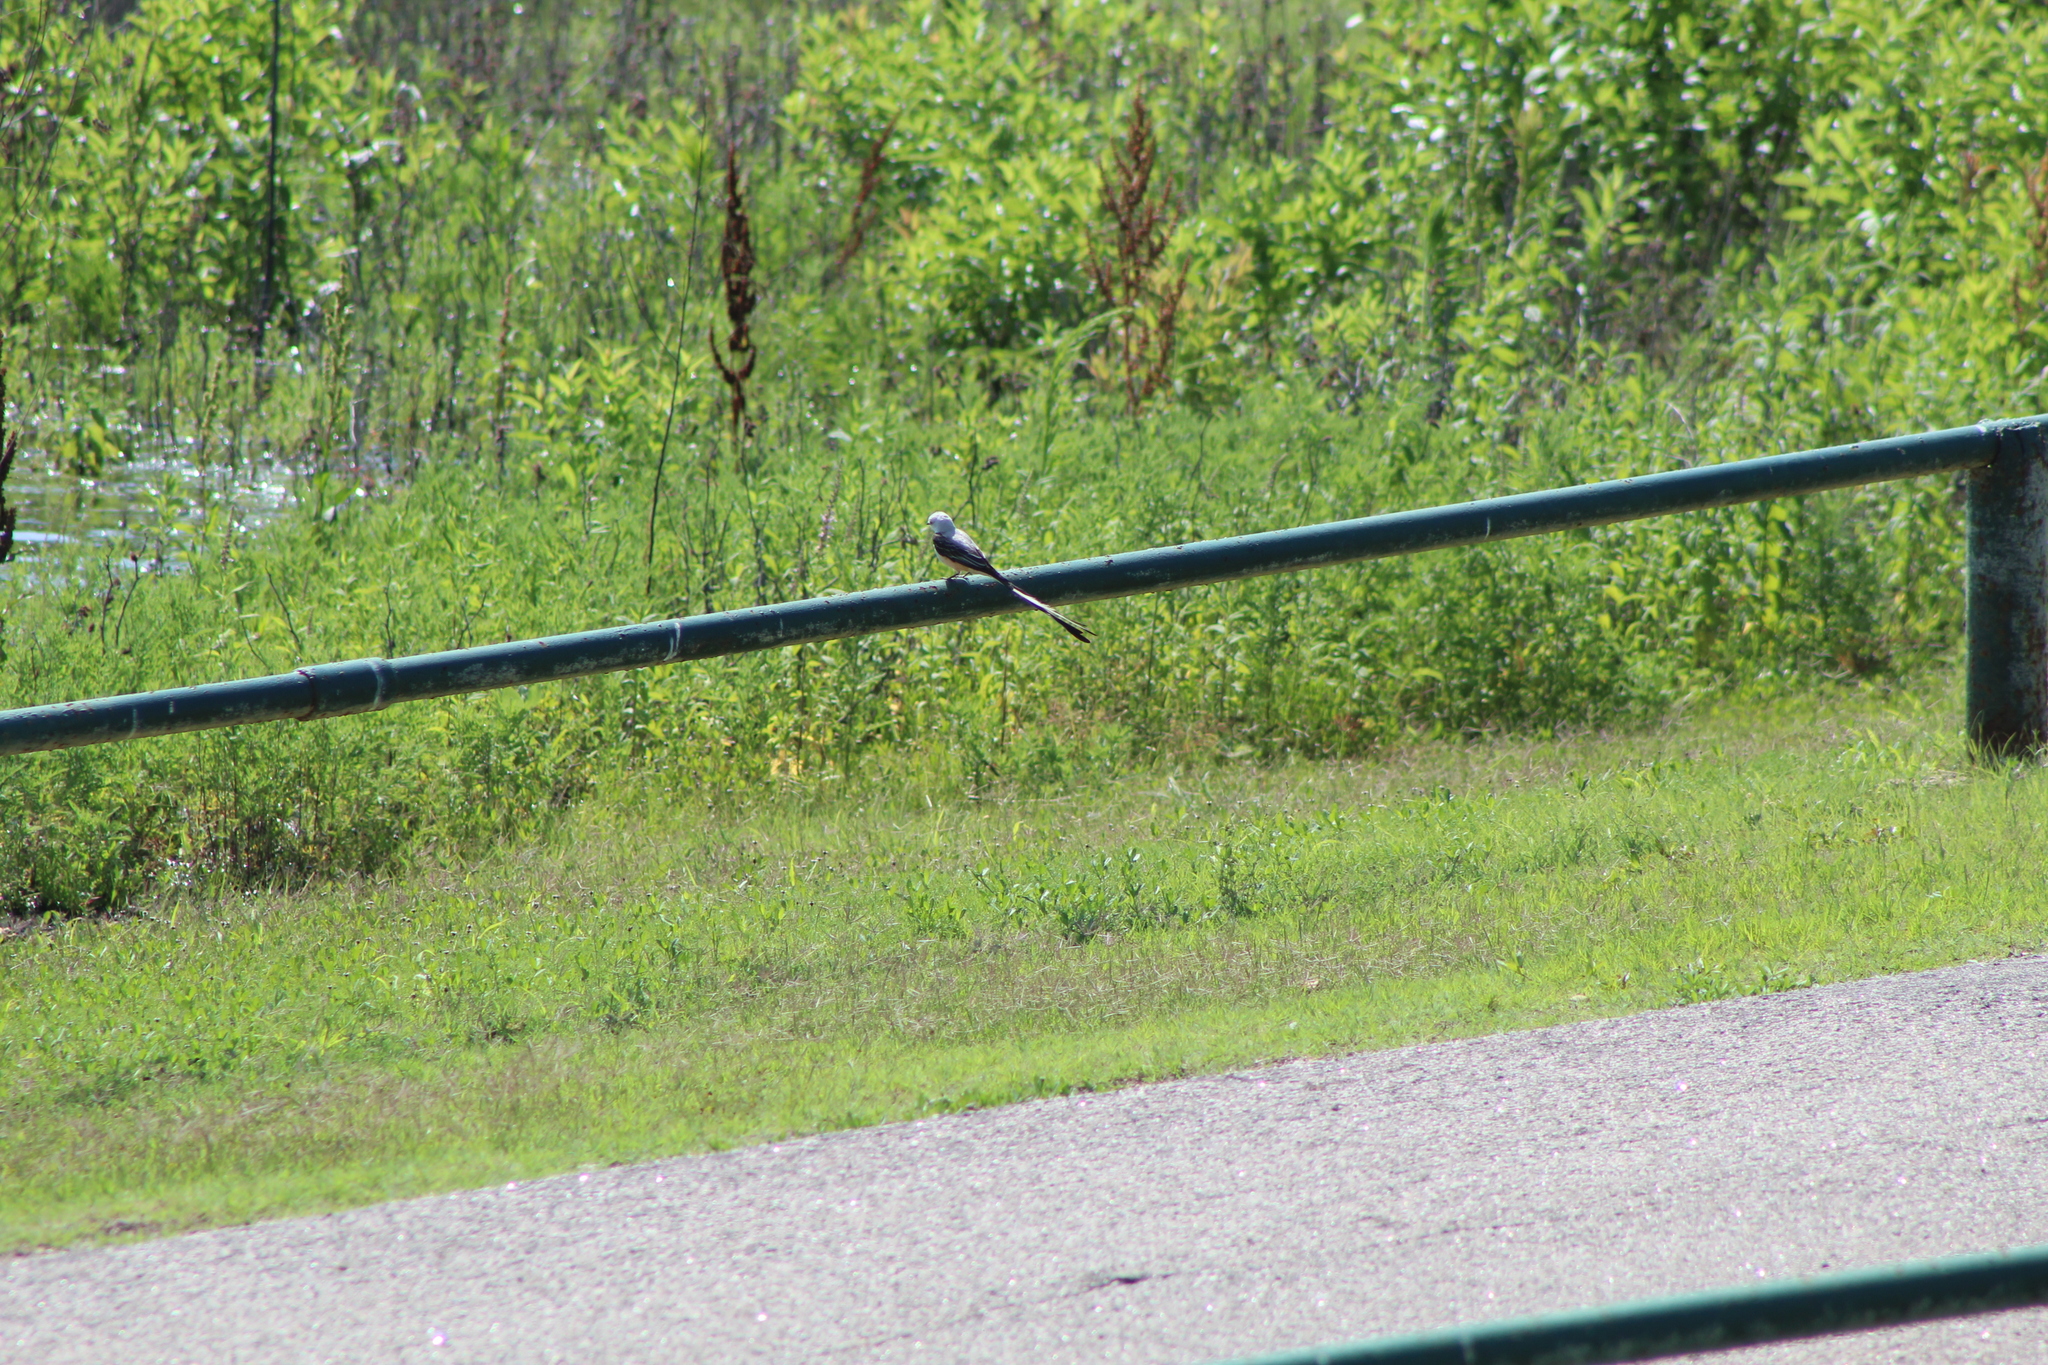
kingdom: Animalia
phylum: Chordata
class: Aves
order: Passeriformes
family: Tyrannidae
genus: Tyrannus
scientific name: Tyrannus forficatus
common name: Scissor-tailed flycatcher
